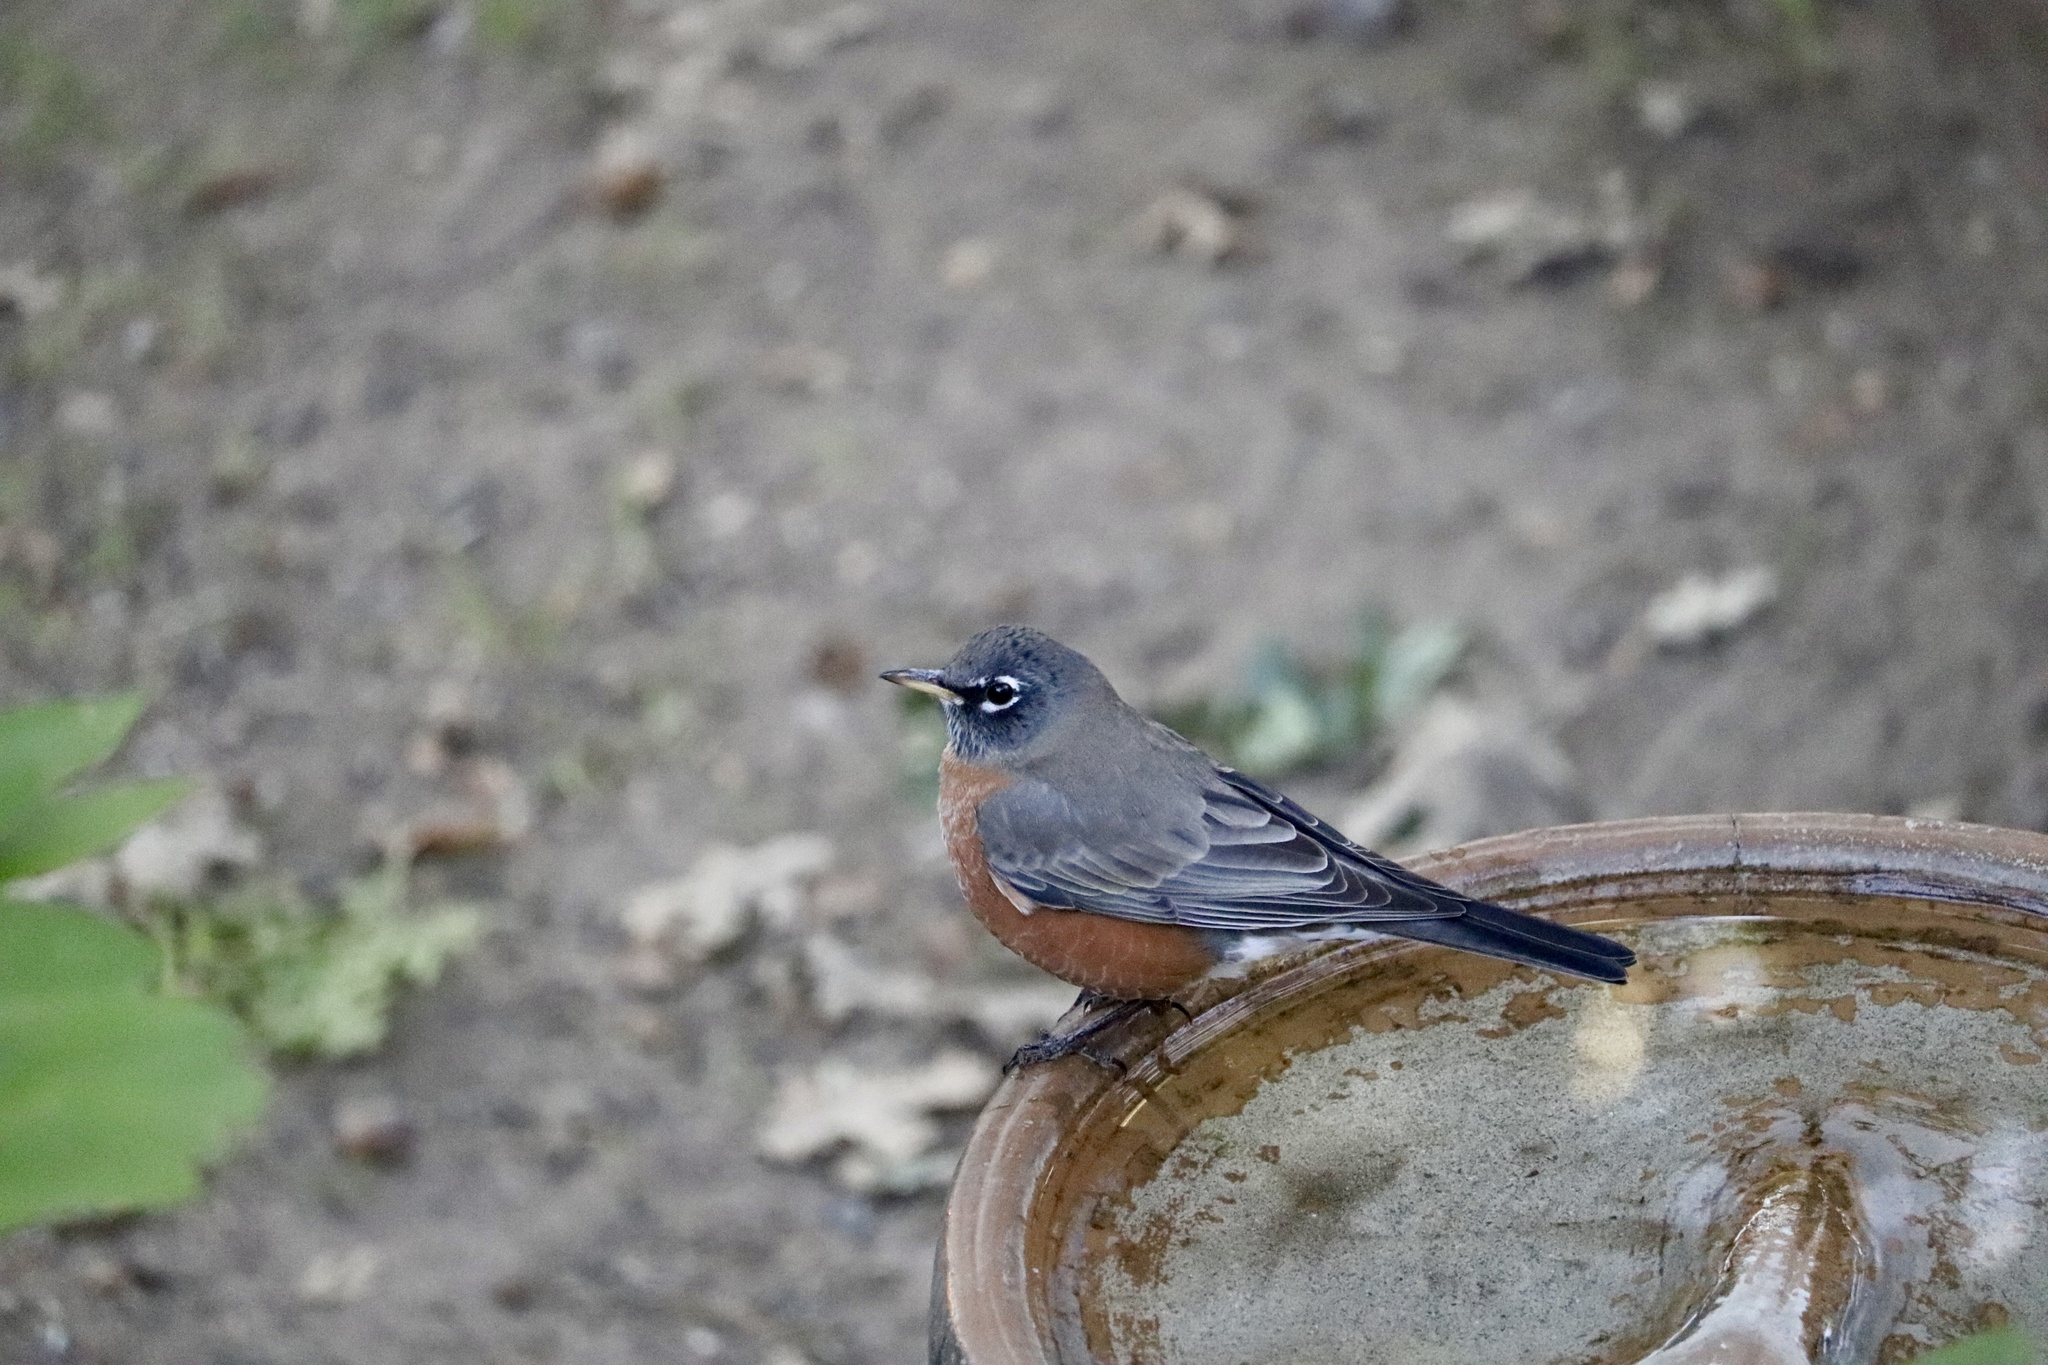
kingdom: Animalia
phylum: Chordata
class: Aves
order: Passeriformes
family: Turdidae
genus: Turdus
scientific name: Turdus migratorius
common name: American robin
